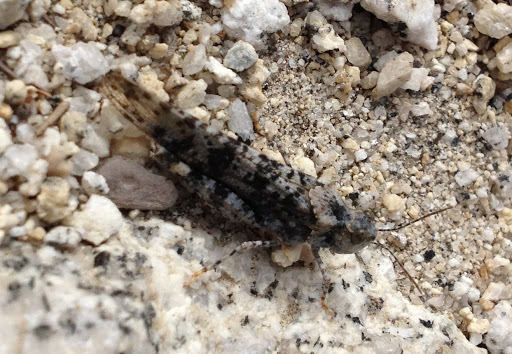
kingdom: Animalia
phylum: Arthropoda
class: Insecta
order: Orthoptera
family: Acrididae
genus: Circotettix
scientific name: Circotettix shastanus
